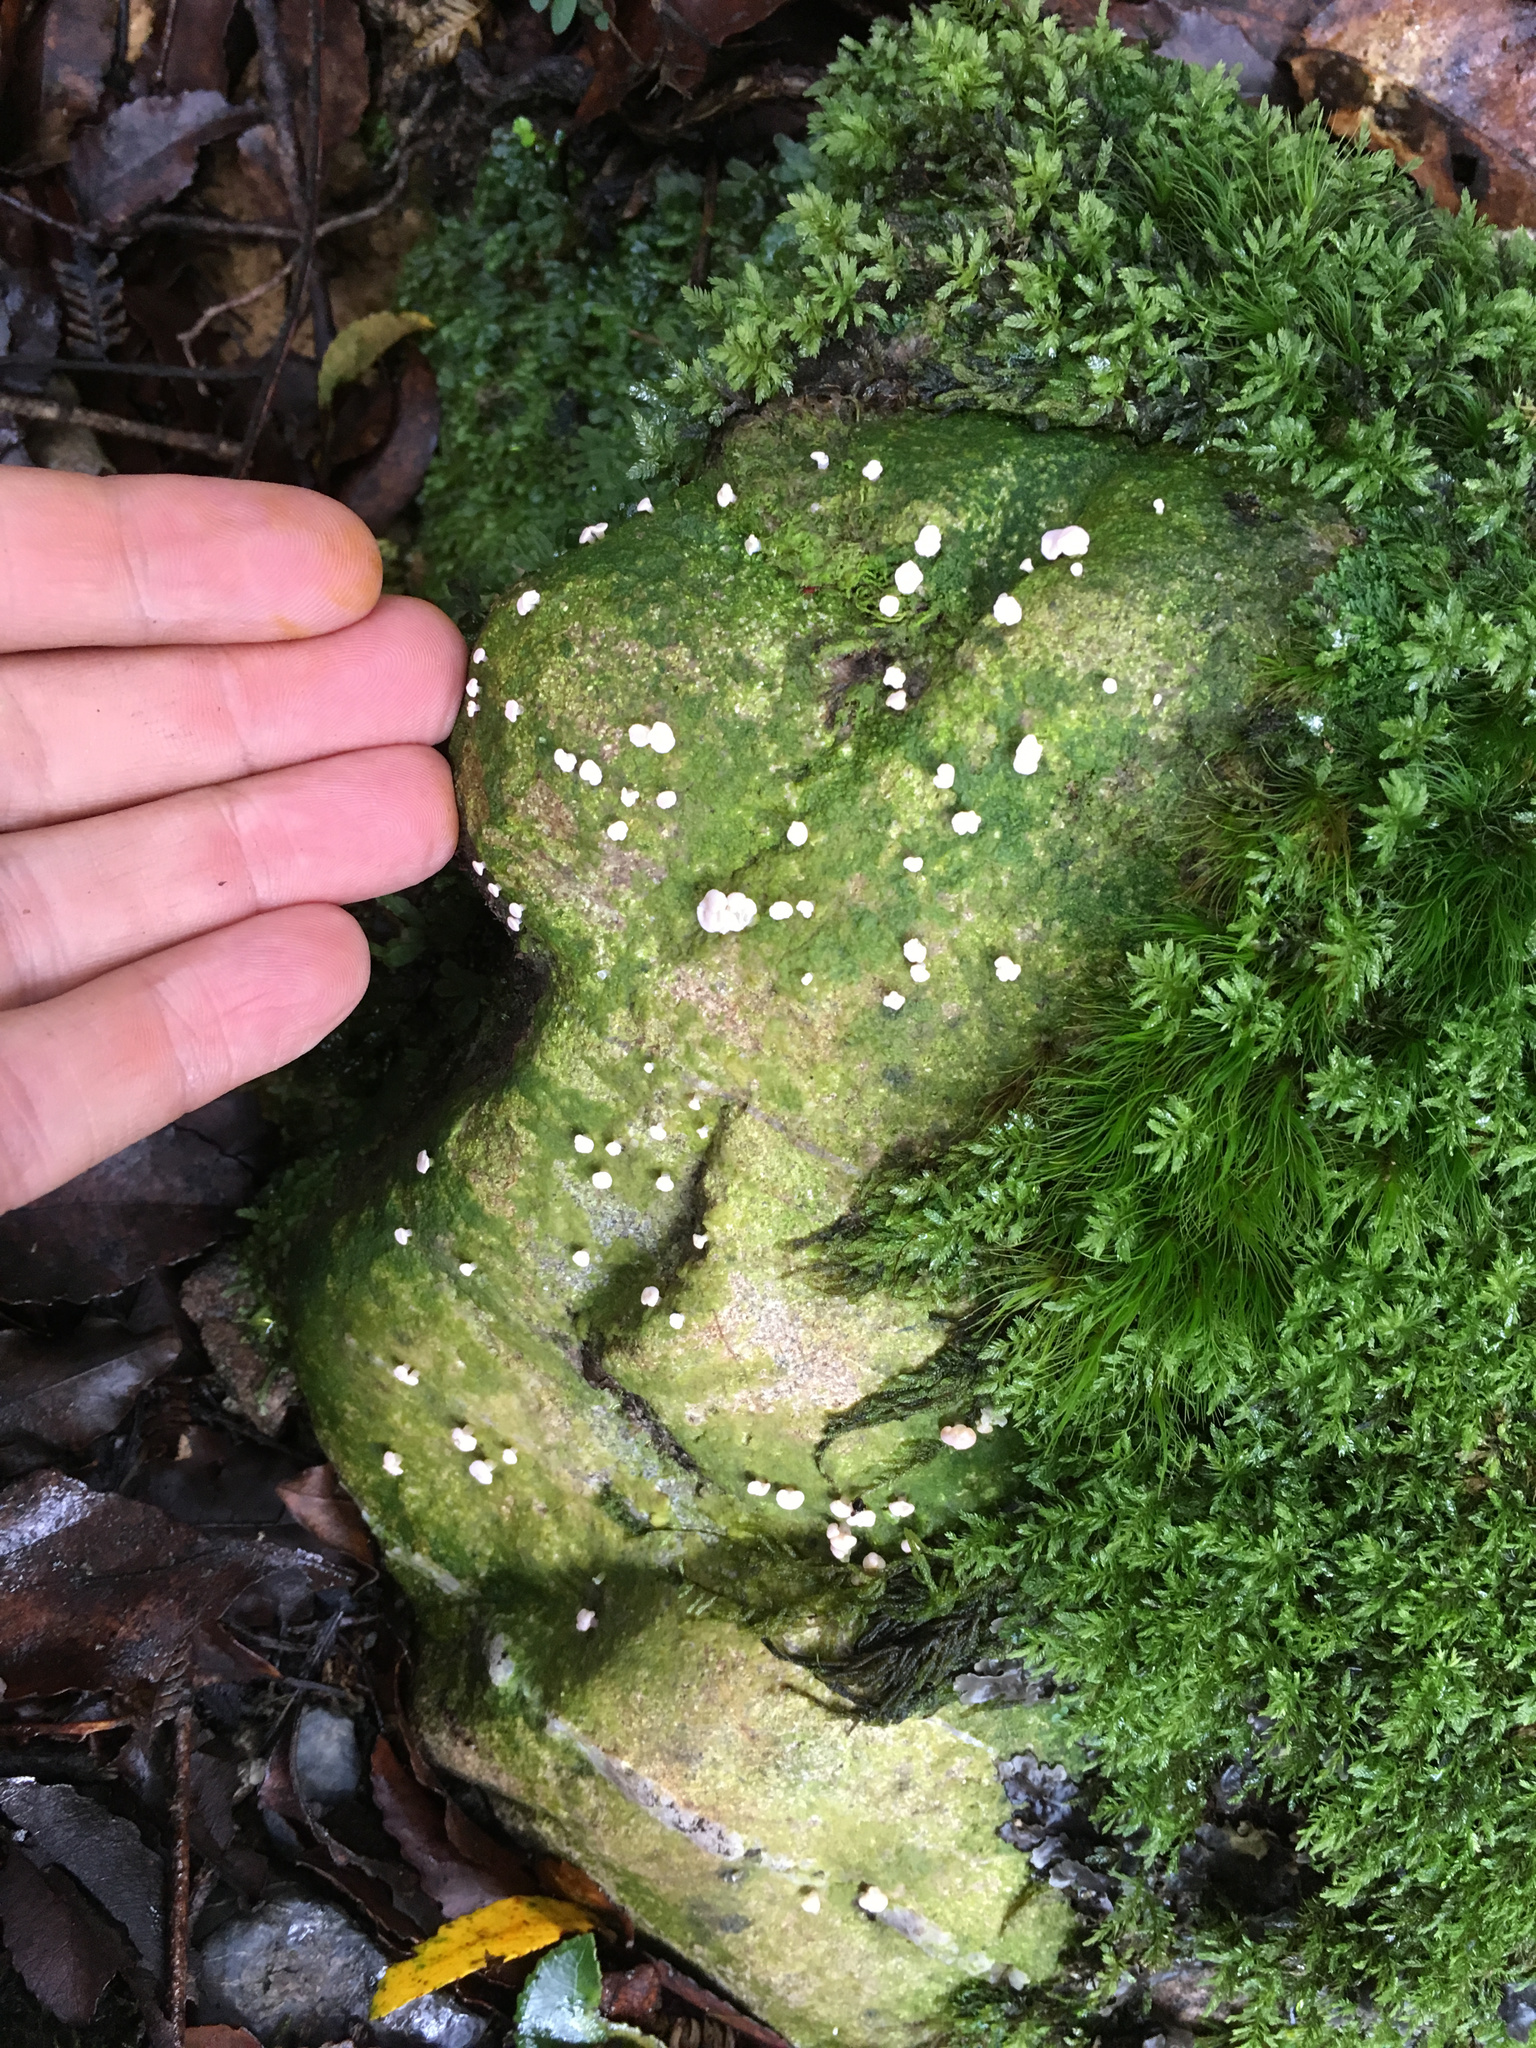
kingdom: Fungi
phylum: Ascomycota
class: Lecanoromycetes
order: Pertusariales
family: Icmadophilaceae
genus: Dibaeis
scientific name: Dibaeis absoluta
